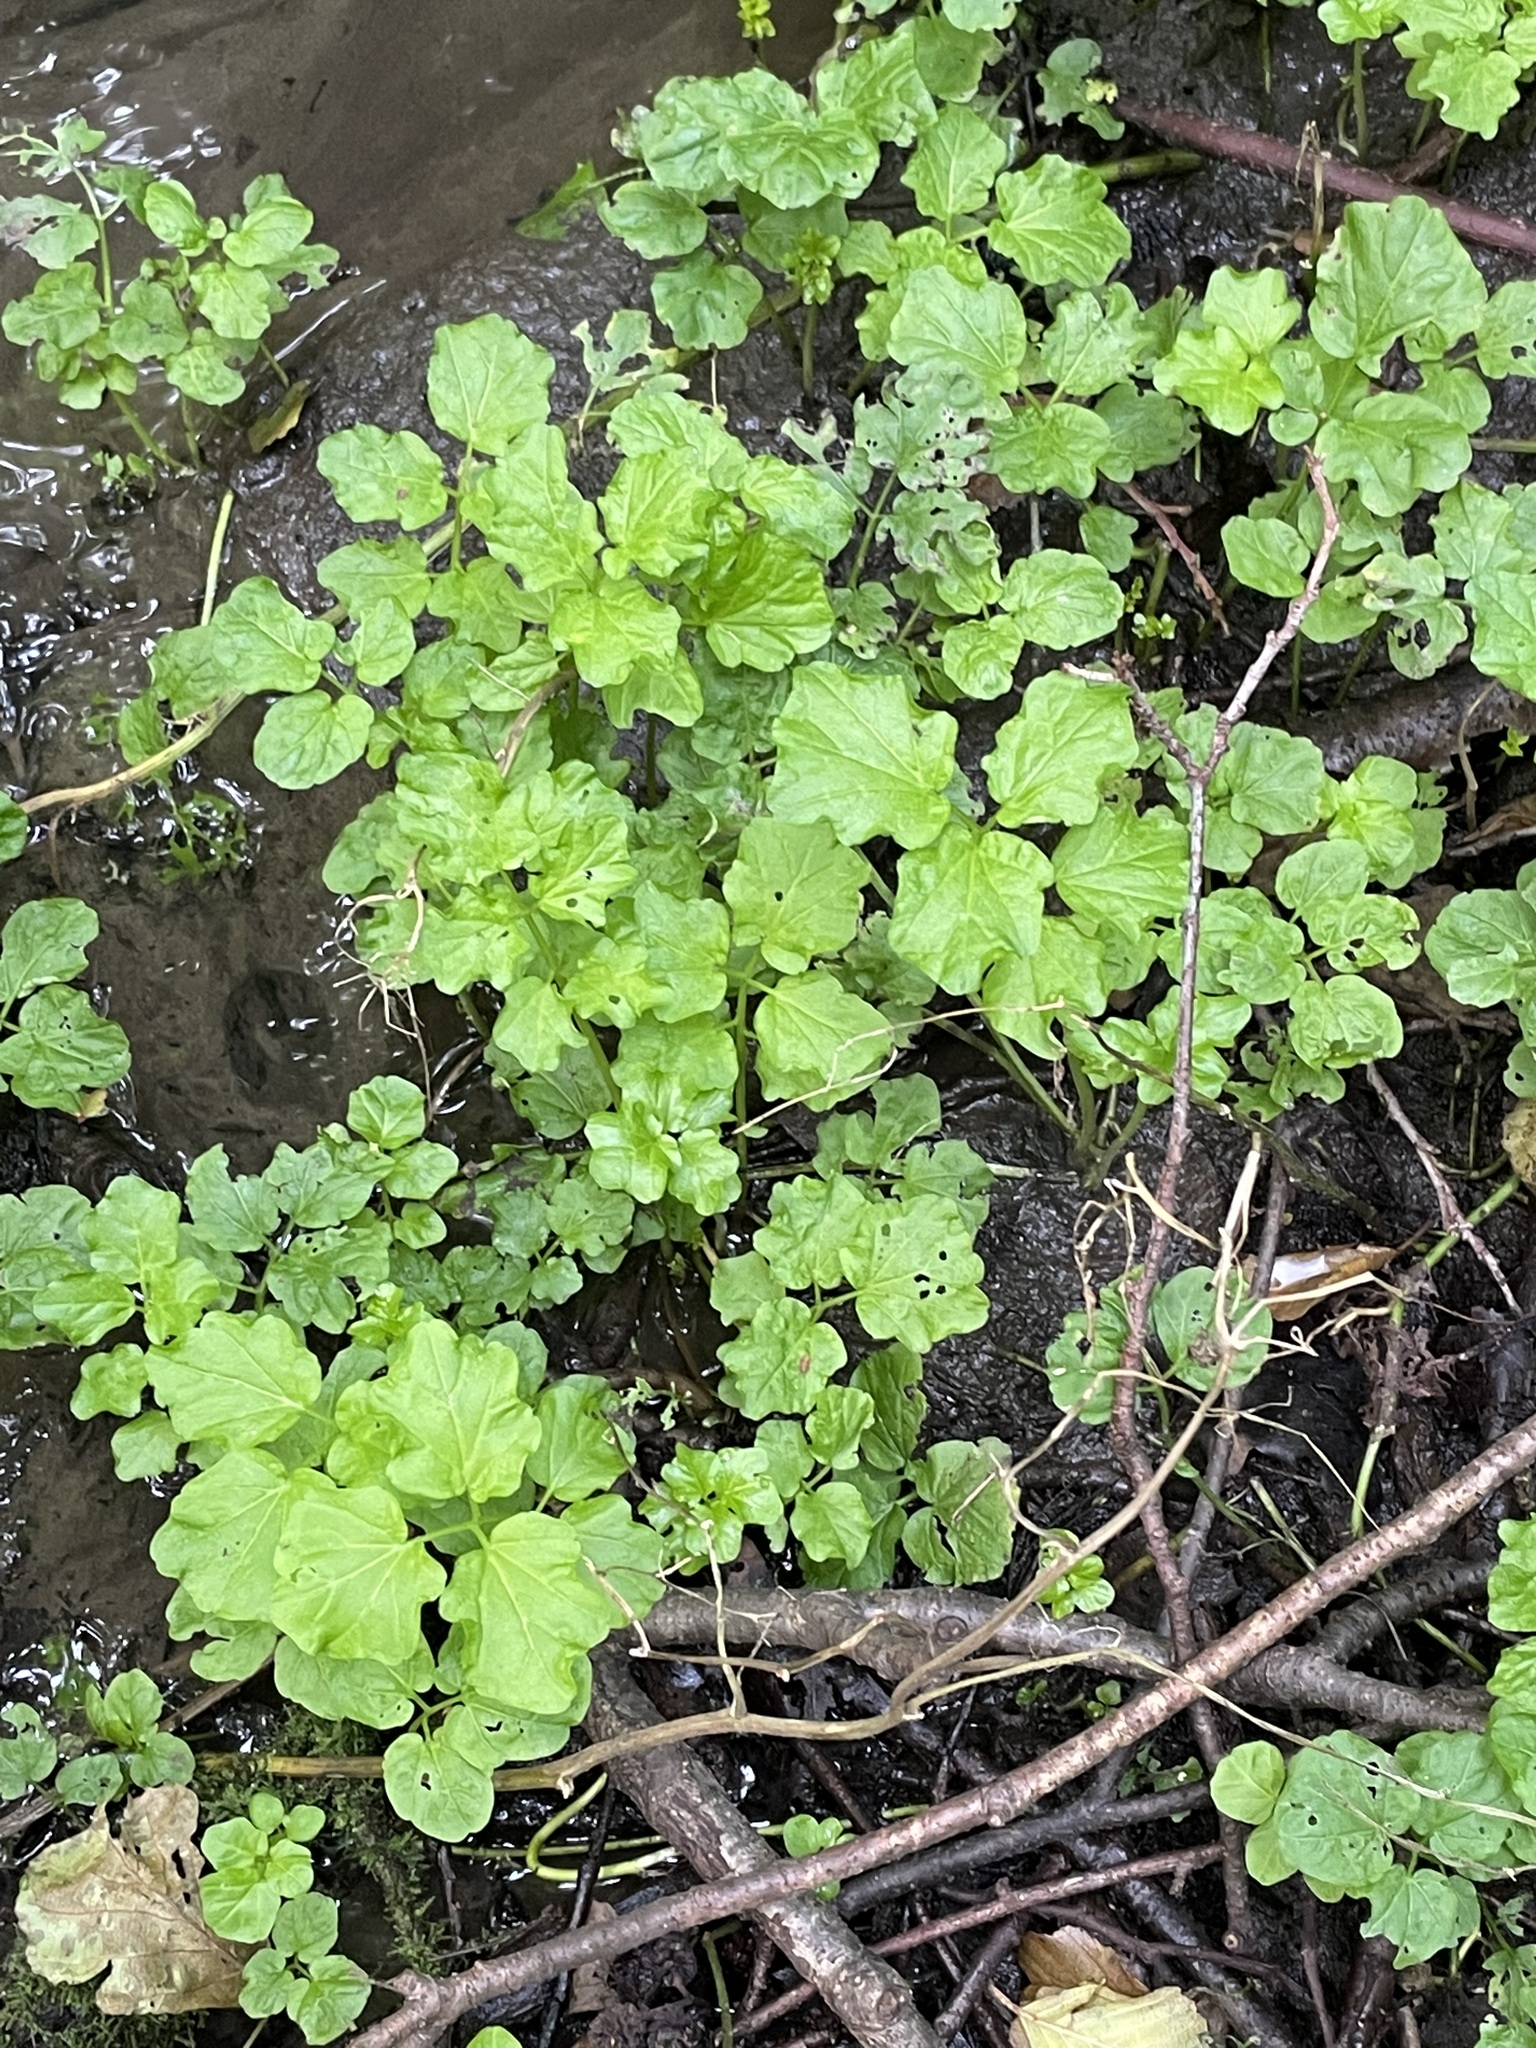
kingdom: Plantae
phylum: Tracheophyta
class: Magnoliopsida
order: Brassicales
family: Brassicaceae
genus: Cardamine
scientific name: Cardamine amara
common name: Large bitter-cress
